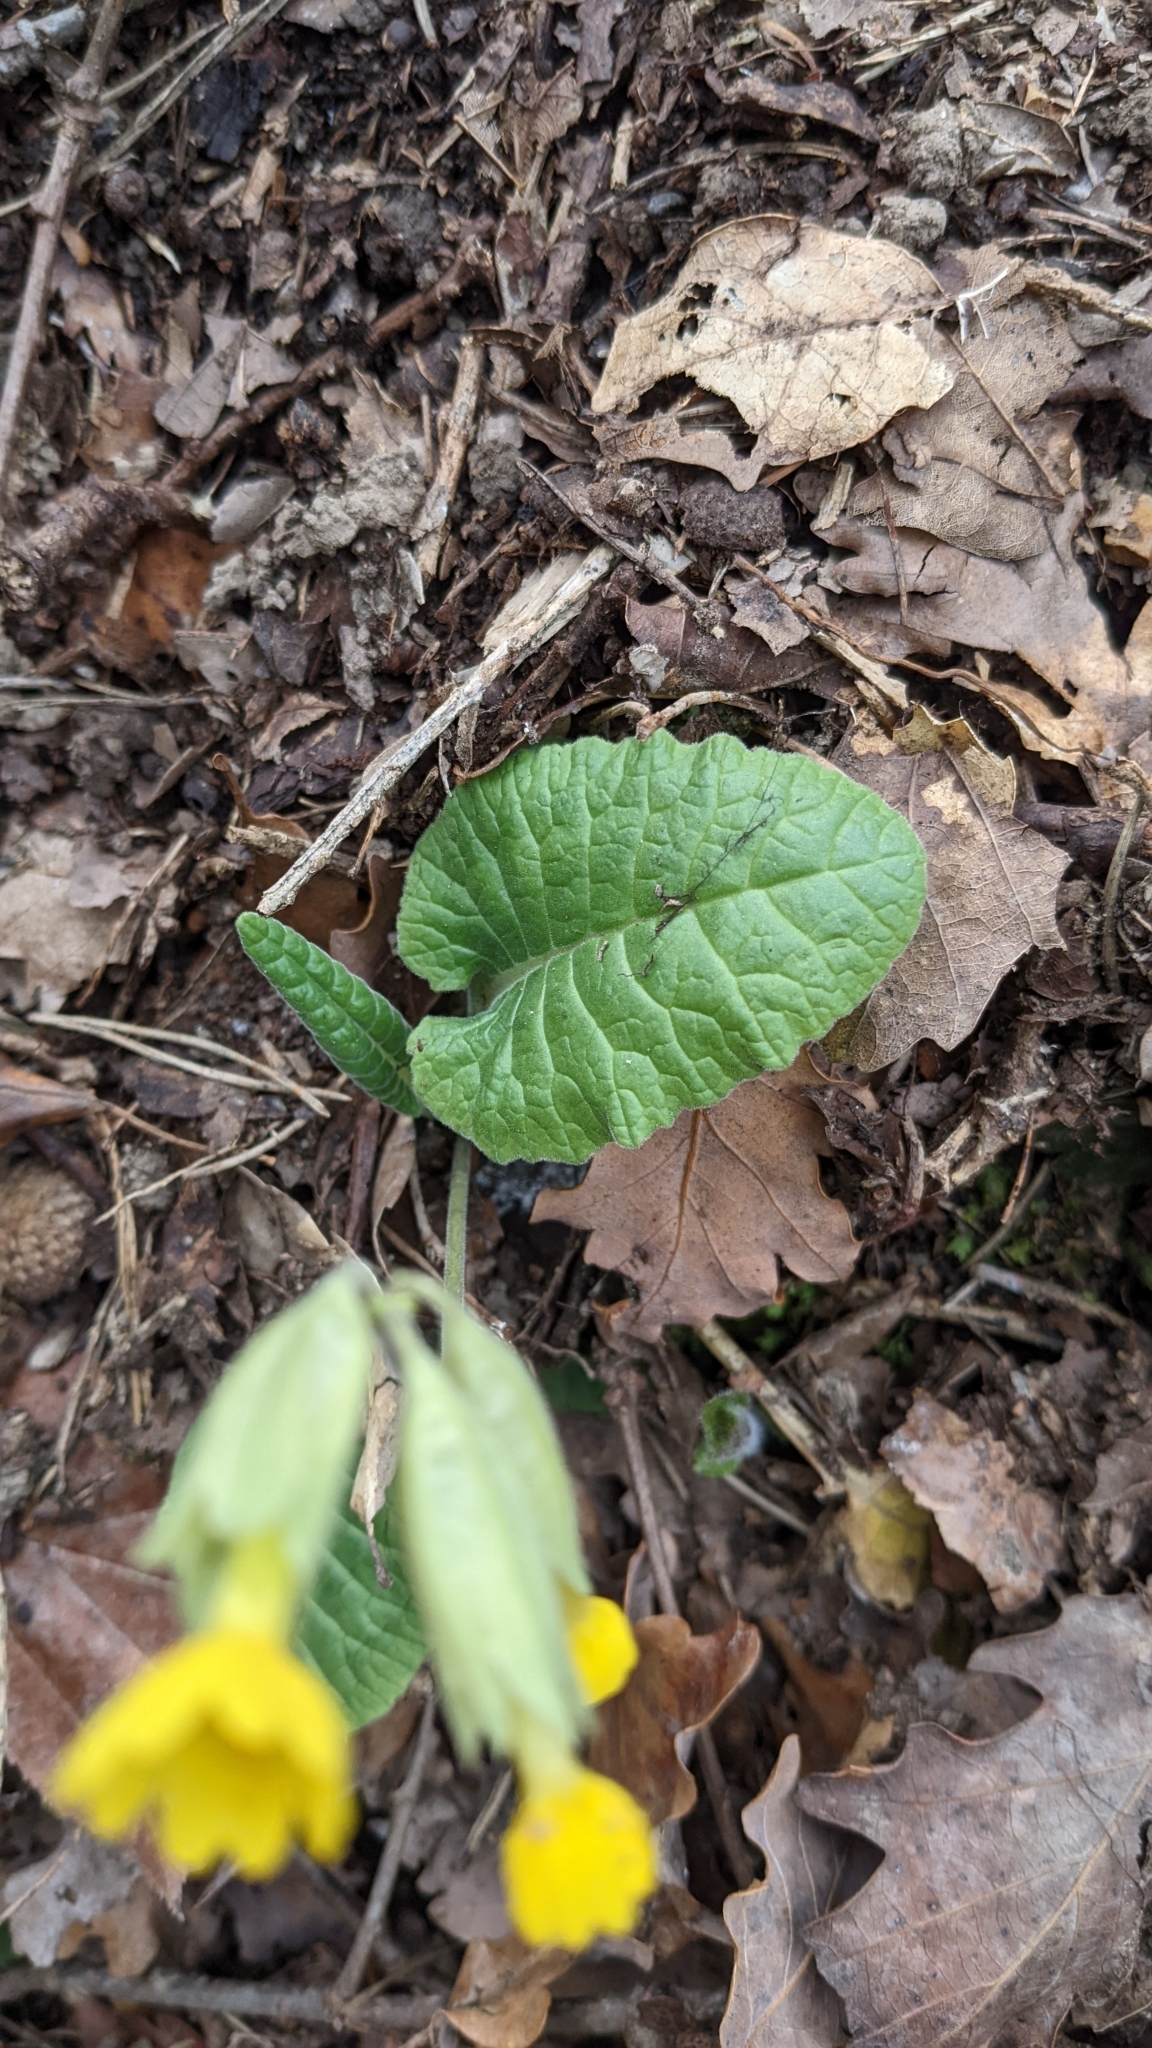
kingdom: Plantae
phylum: Tracheophyta
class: Magnoliopsida
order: Ericales
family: Primulaceae
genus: Primula
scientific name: Primula veris
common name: Cowslip
